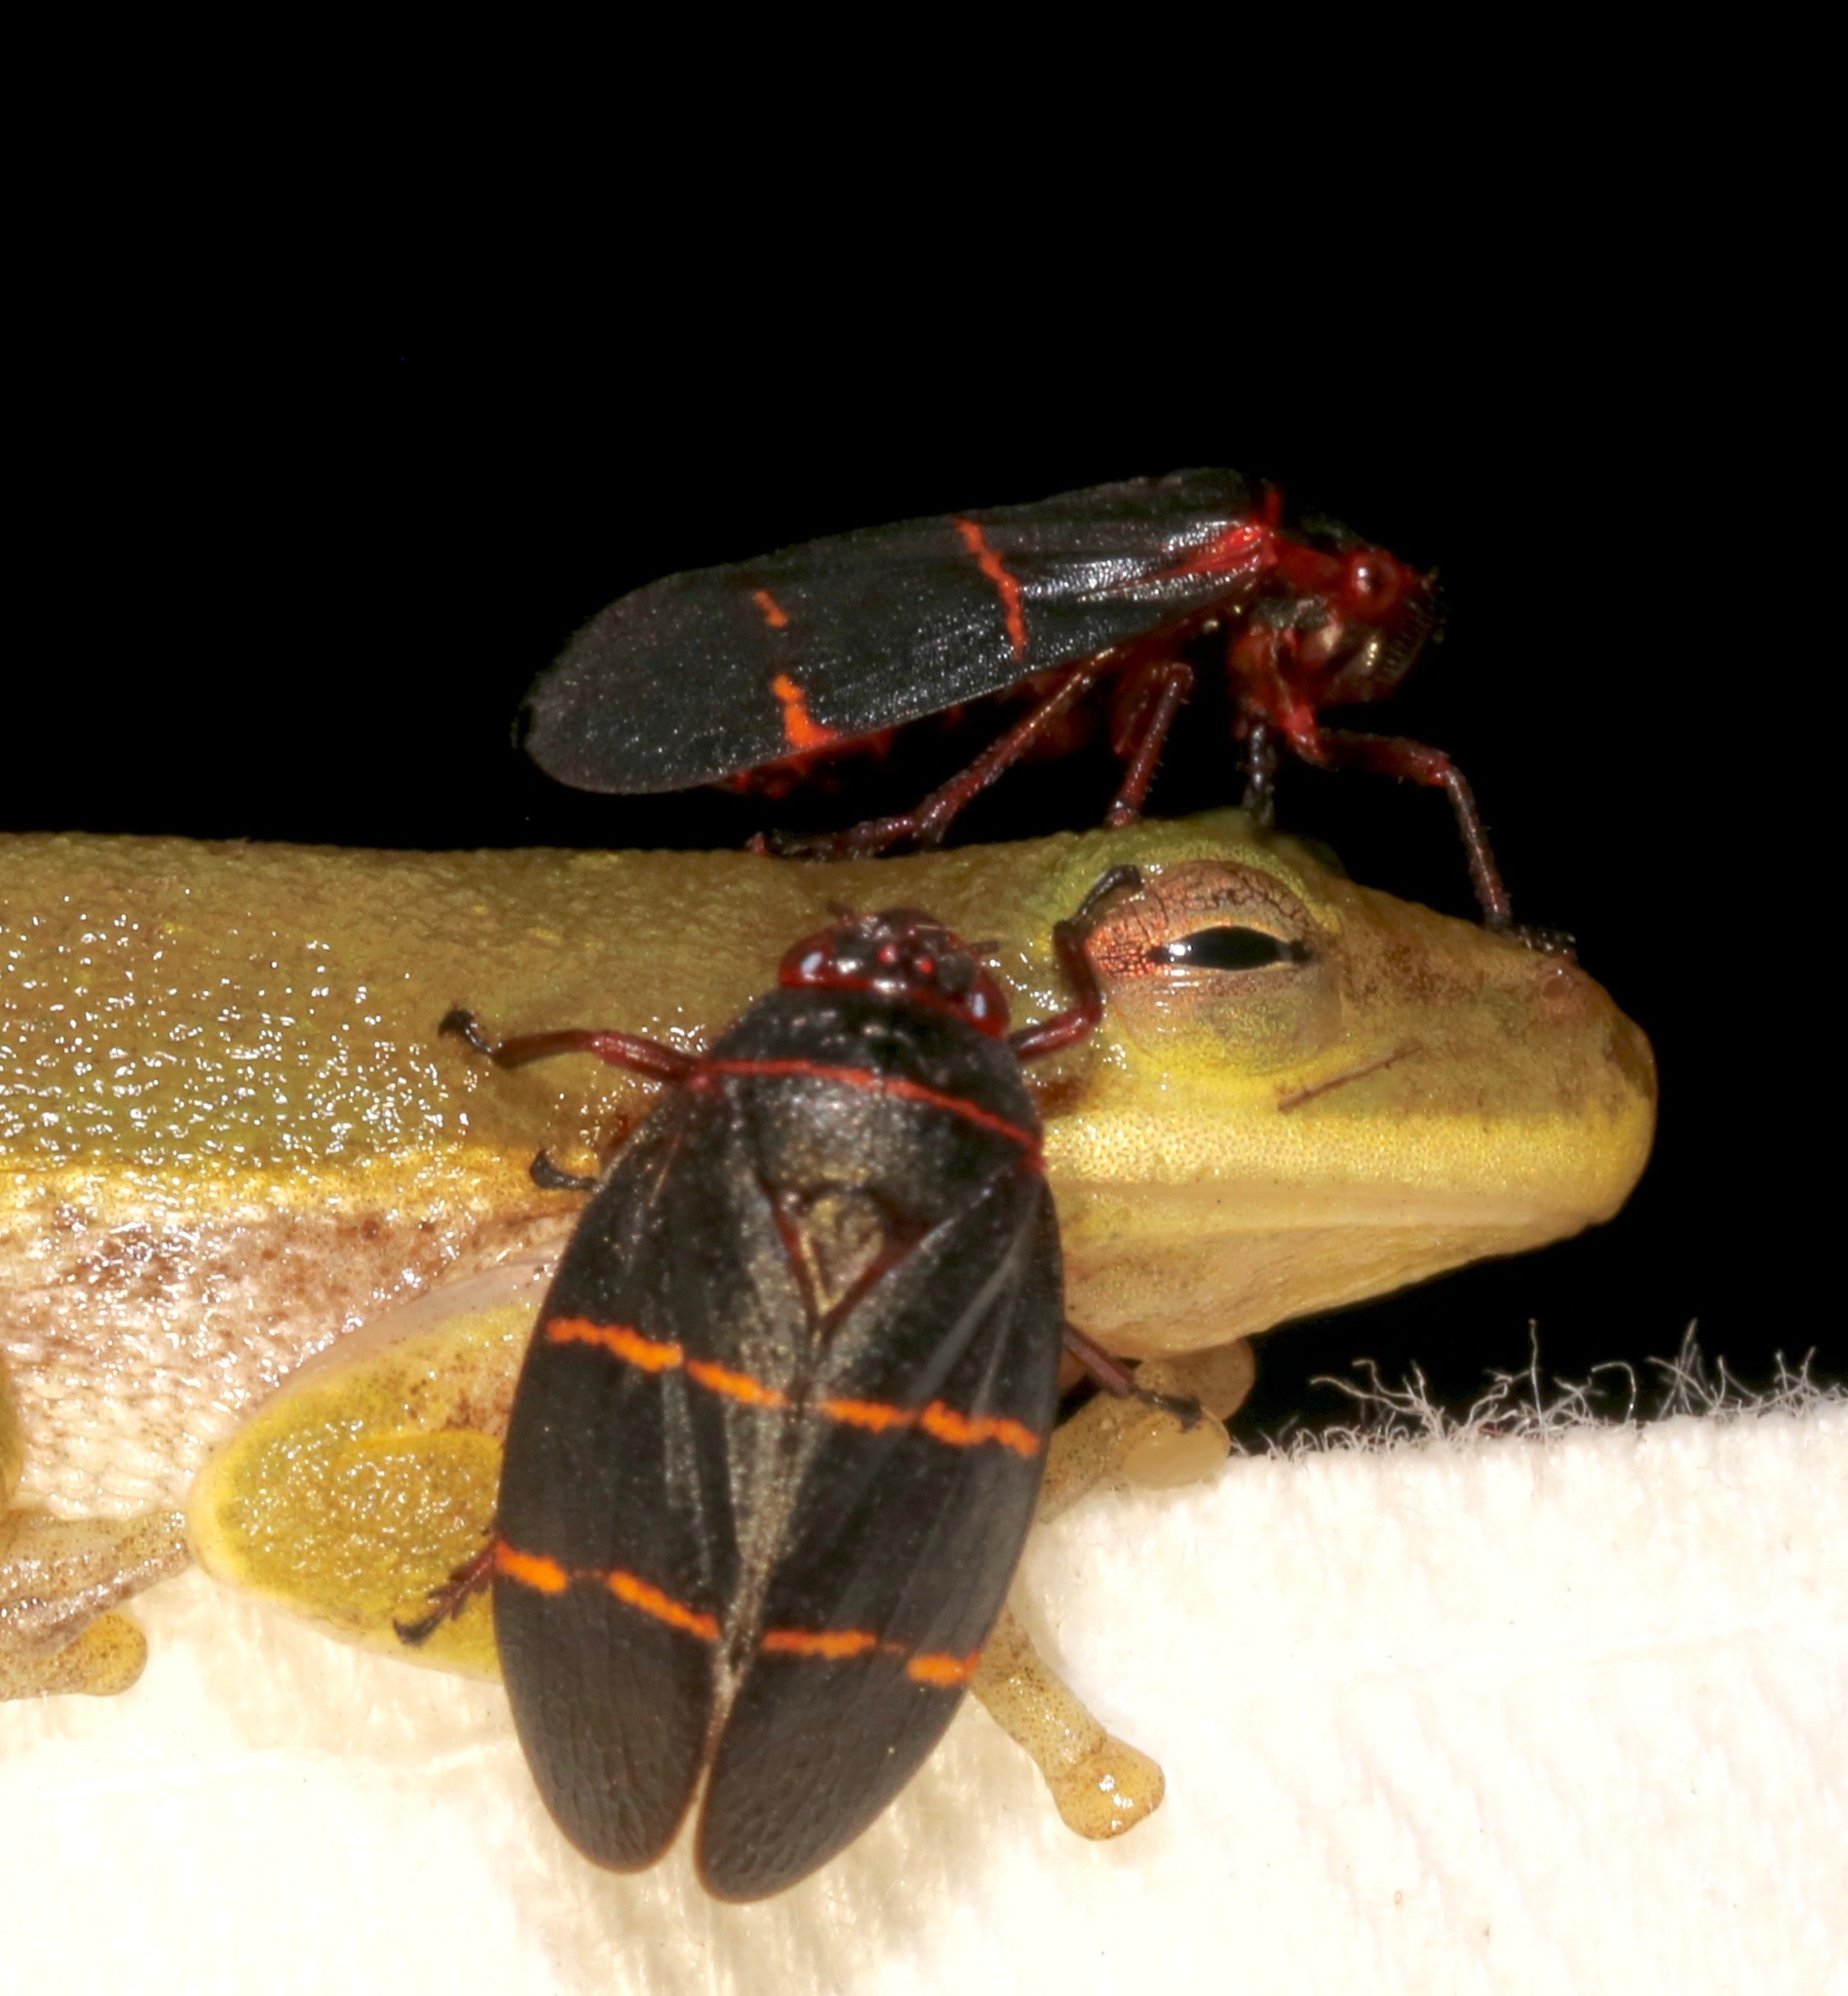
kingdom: Animalia
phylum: Arthropoda
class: Insecta
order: Hemiptera
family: Cercopidae
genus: Prosapia
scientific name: Prosapia bicincta
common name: Twolined spittlebug
